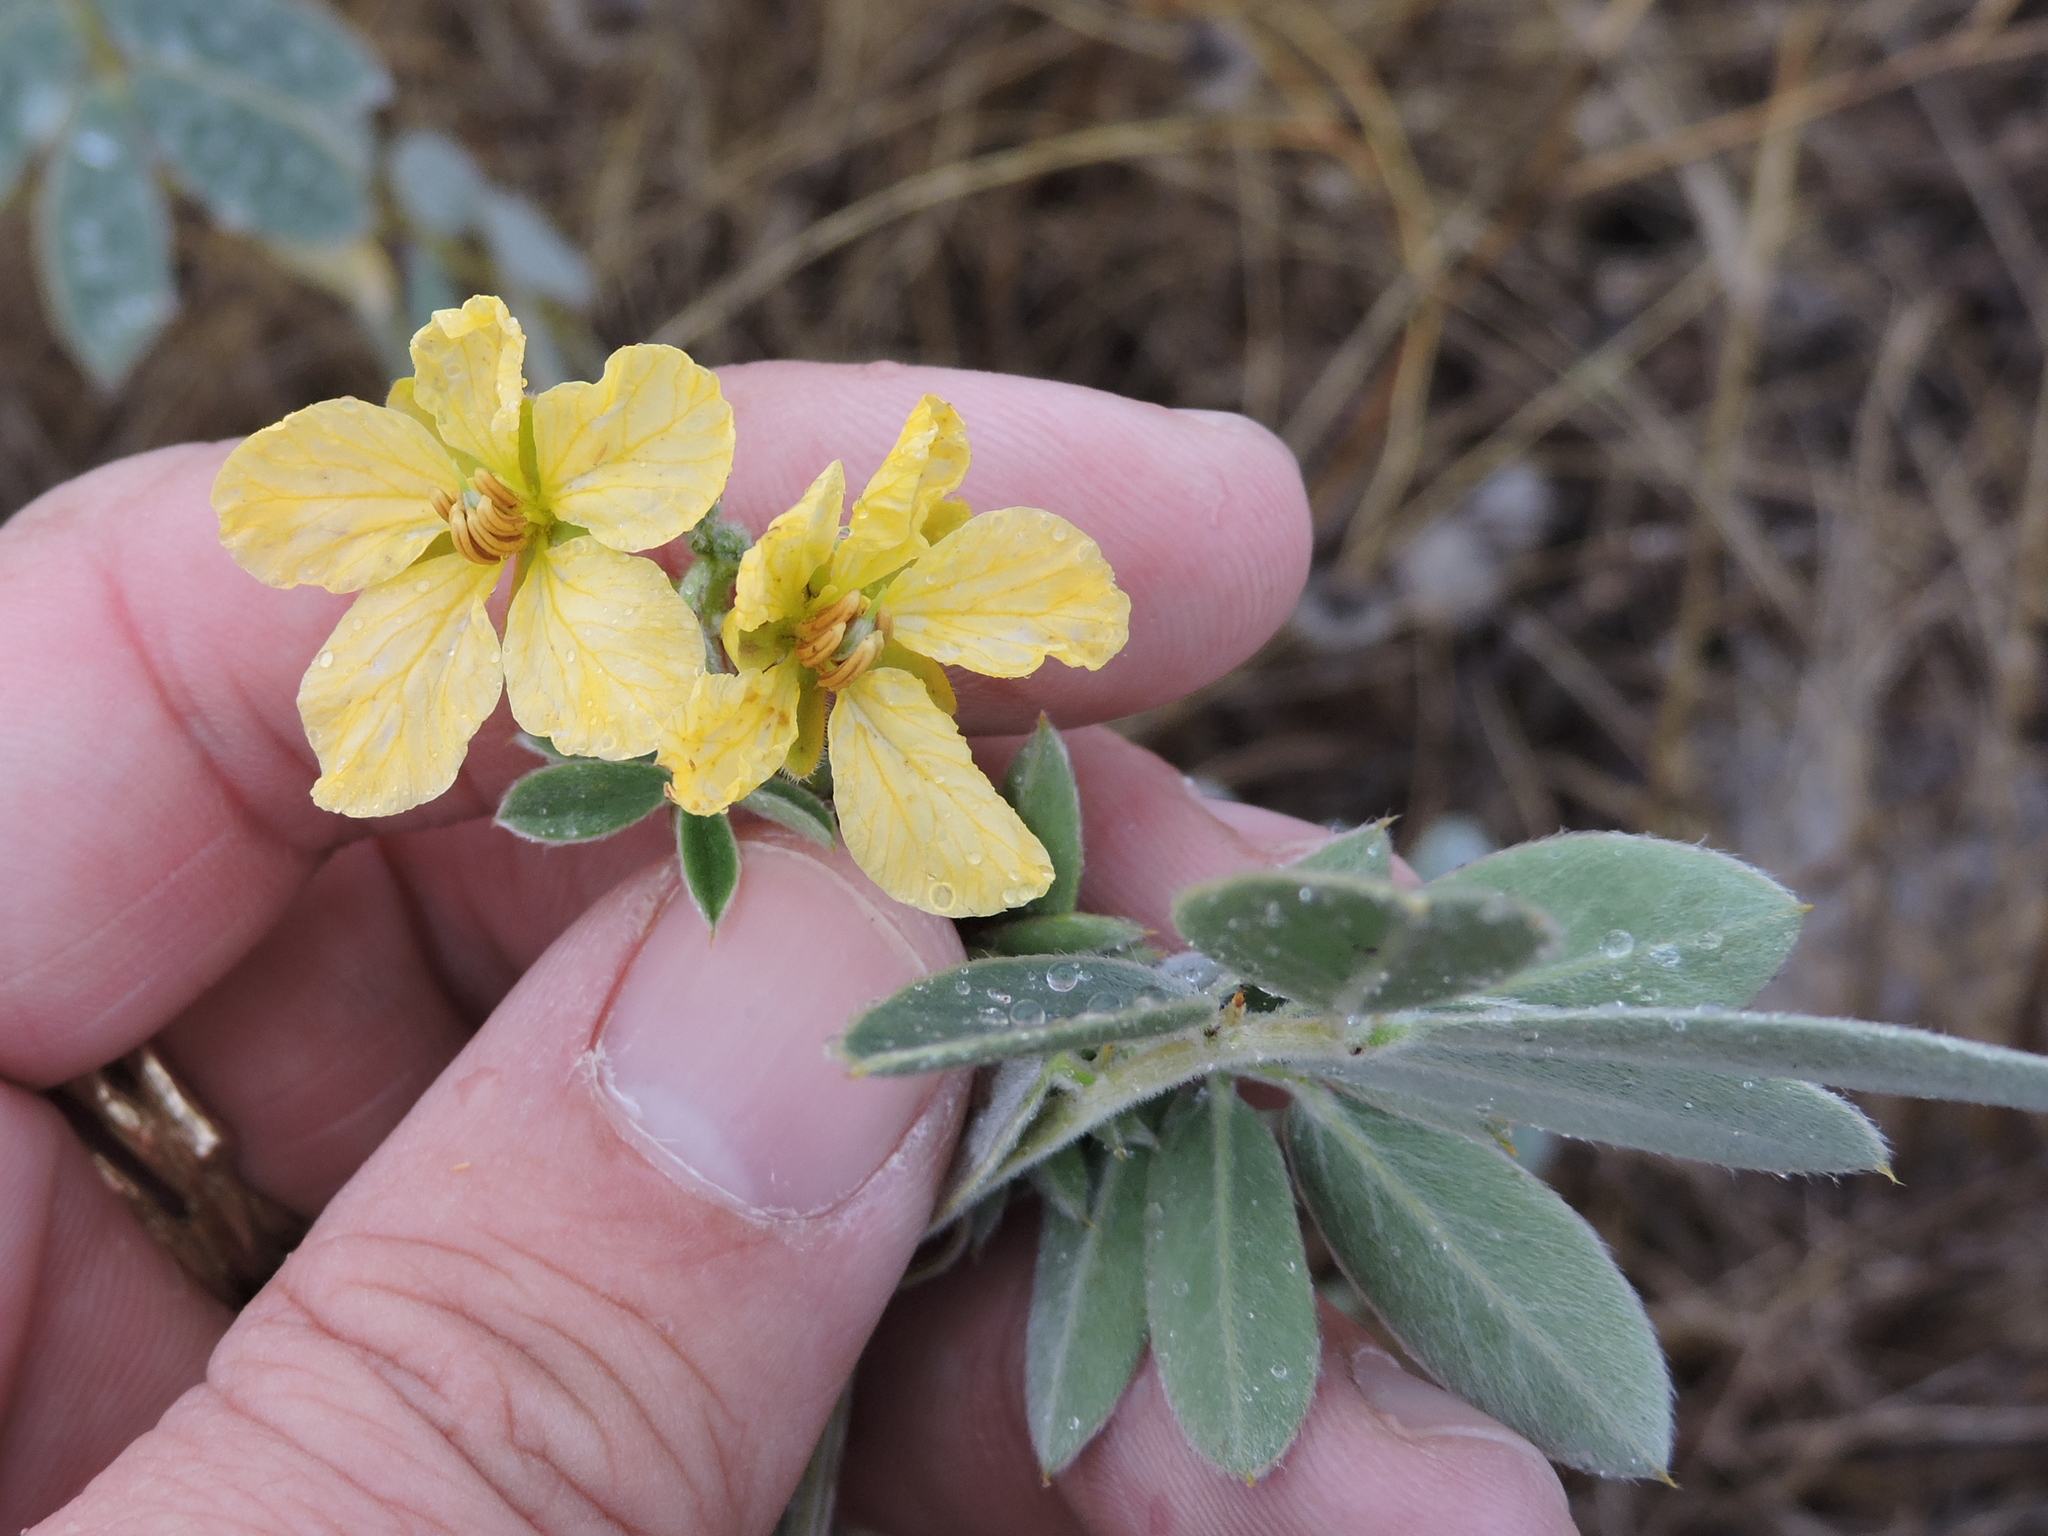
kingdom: Plantae
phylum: Tracheophyta
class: Magnoliopsida
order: Fabales
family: Fabaceae
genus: Senna
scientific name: Senna lindheimeriana
